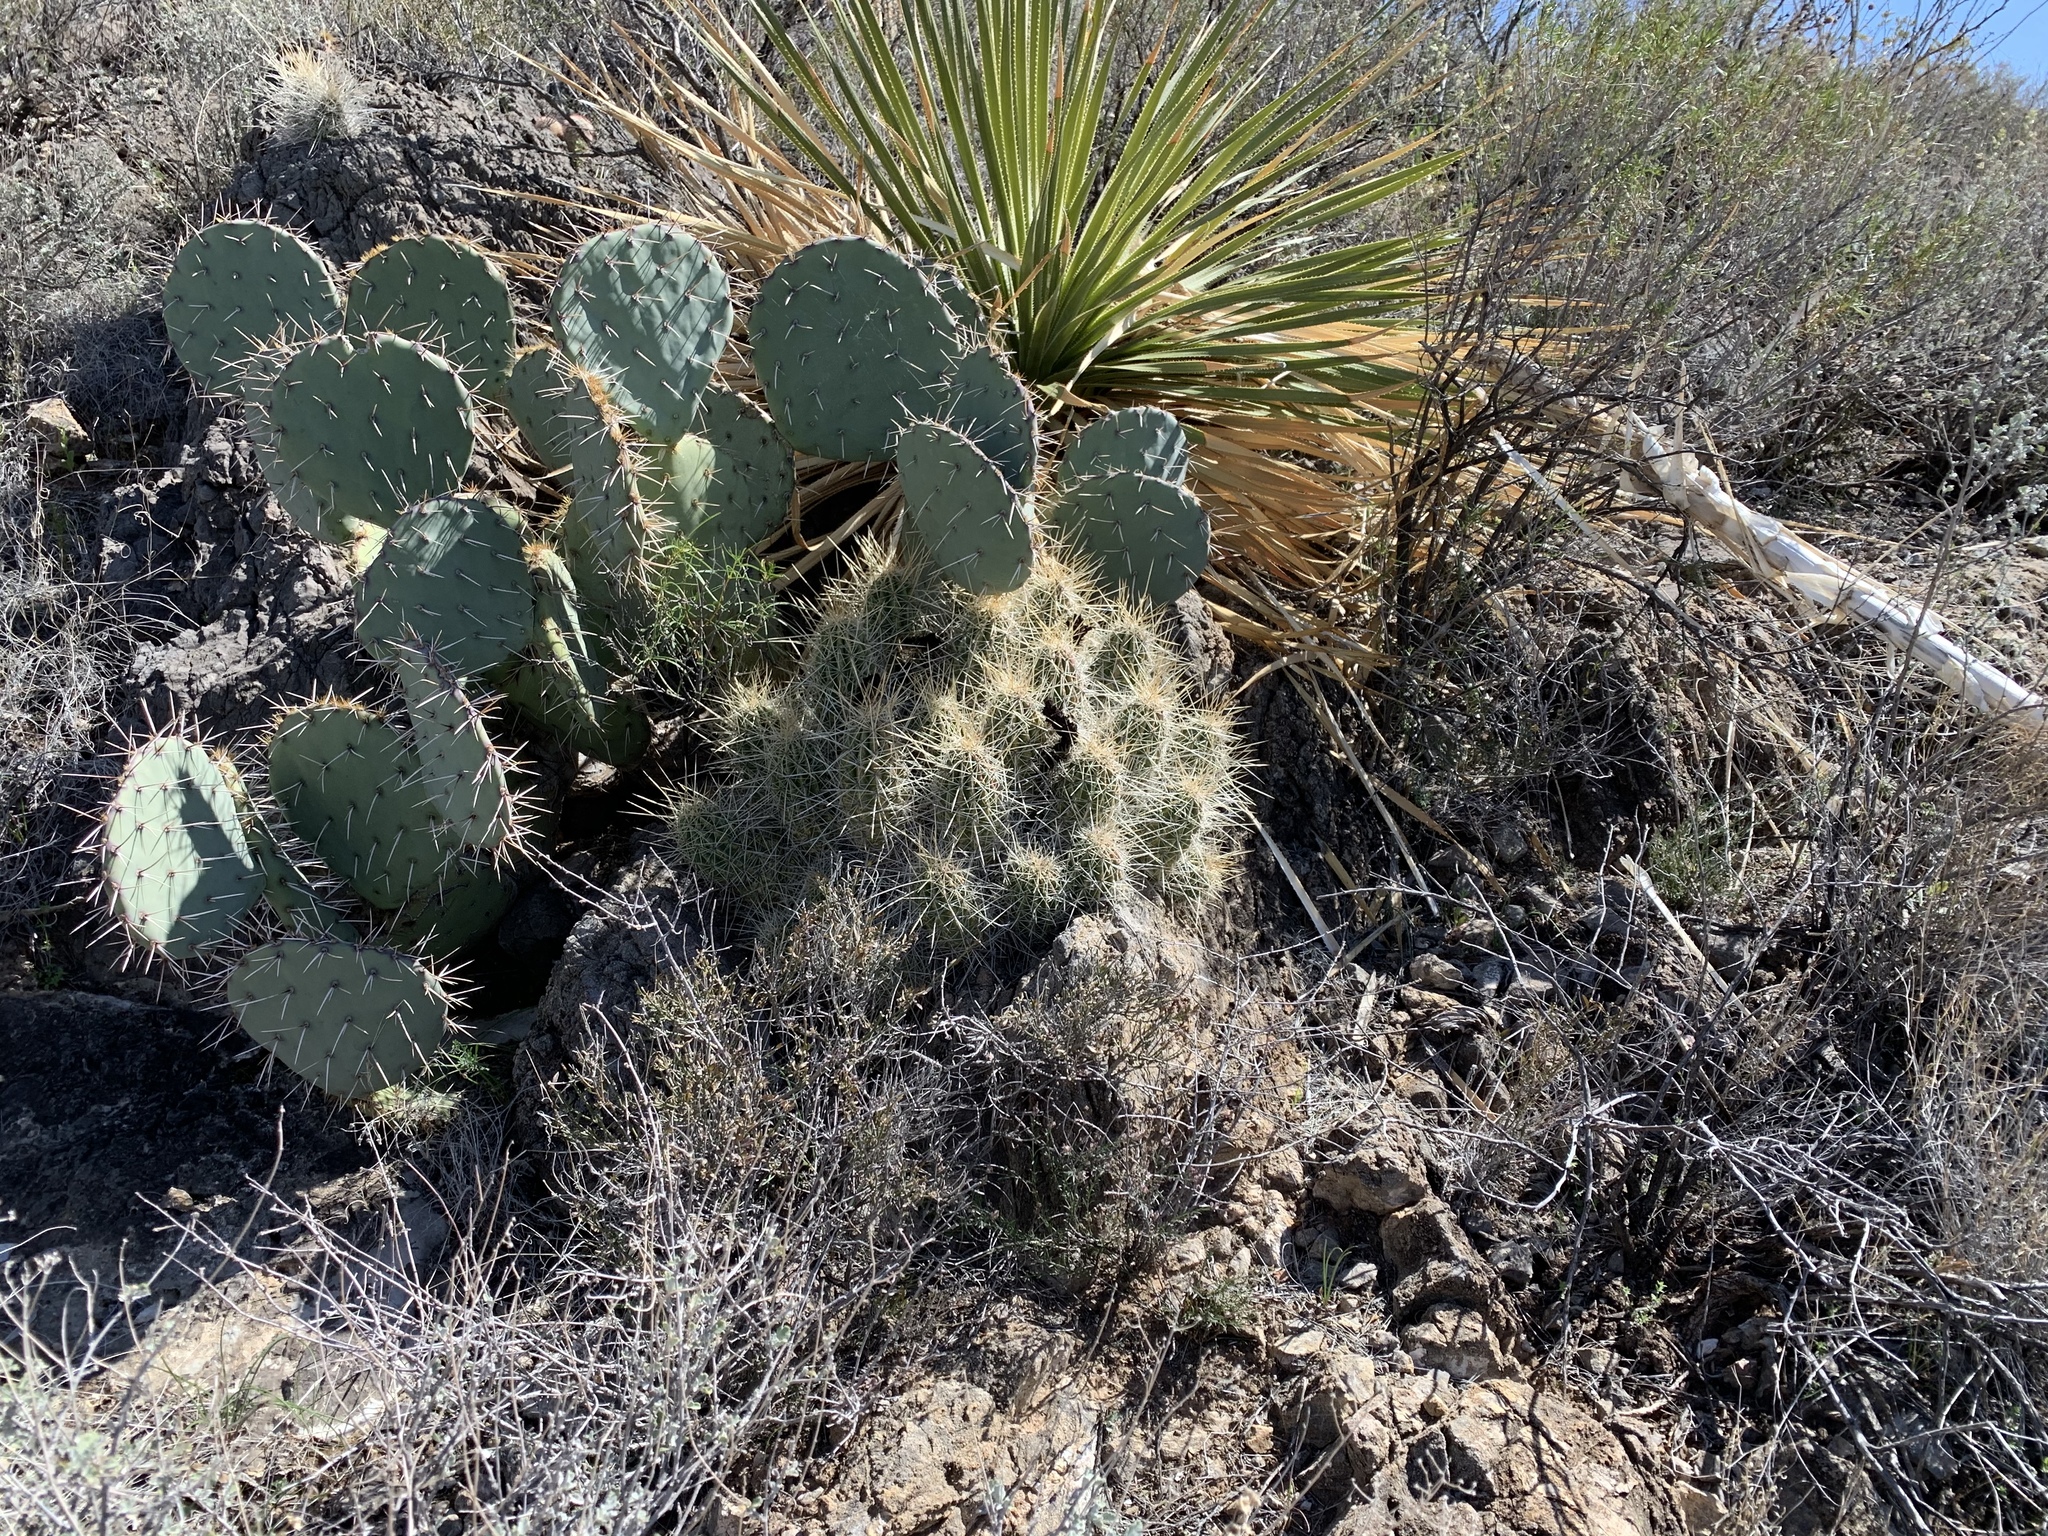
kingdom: Plantae
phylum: Tracheophyta
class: Magnoliopsida
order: Caryophyllales
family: Cactaceae
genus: Echinocereus
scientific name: Echinocereus stramineus
